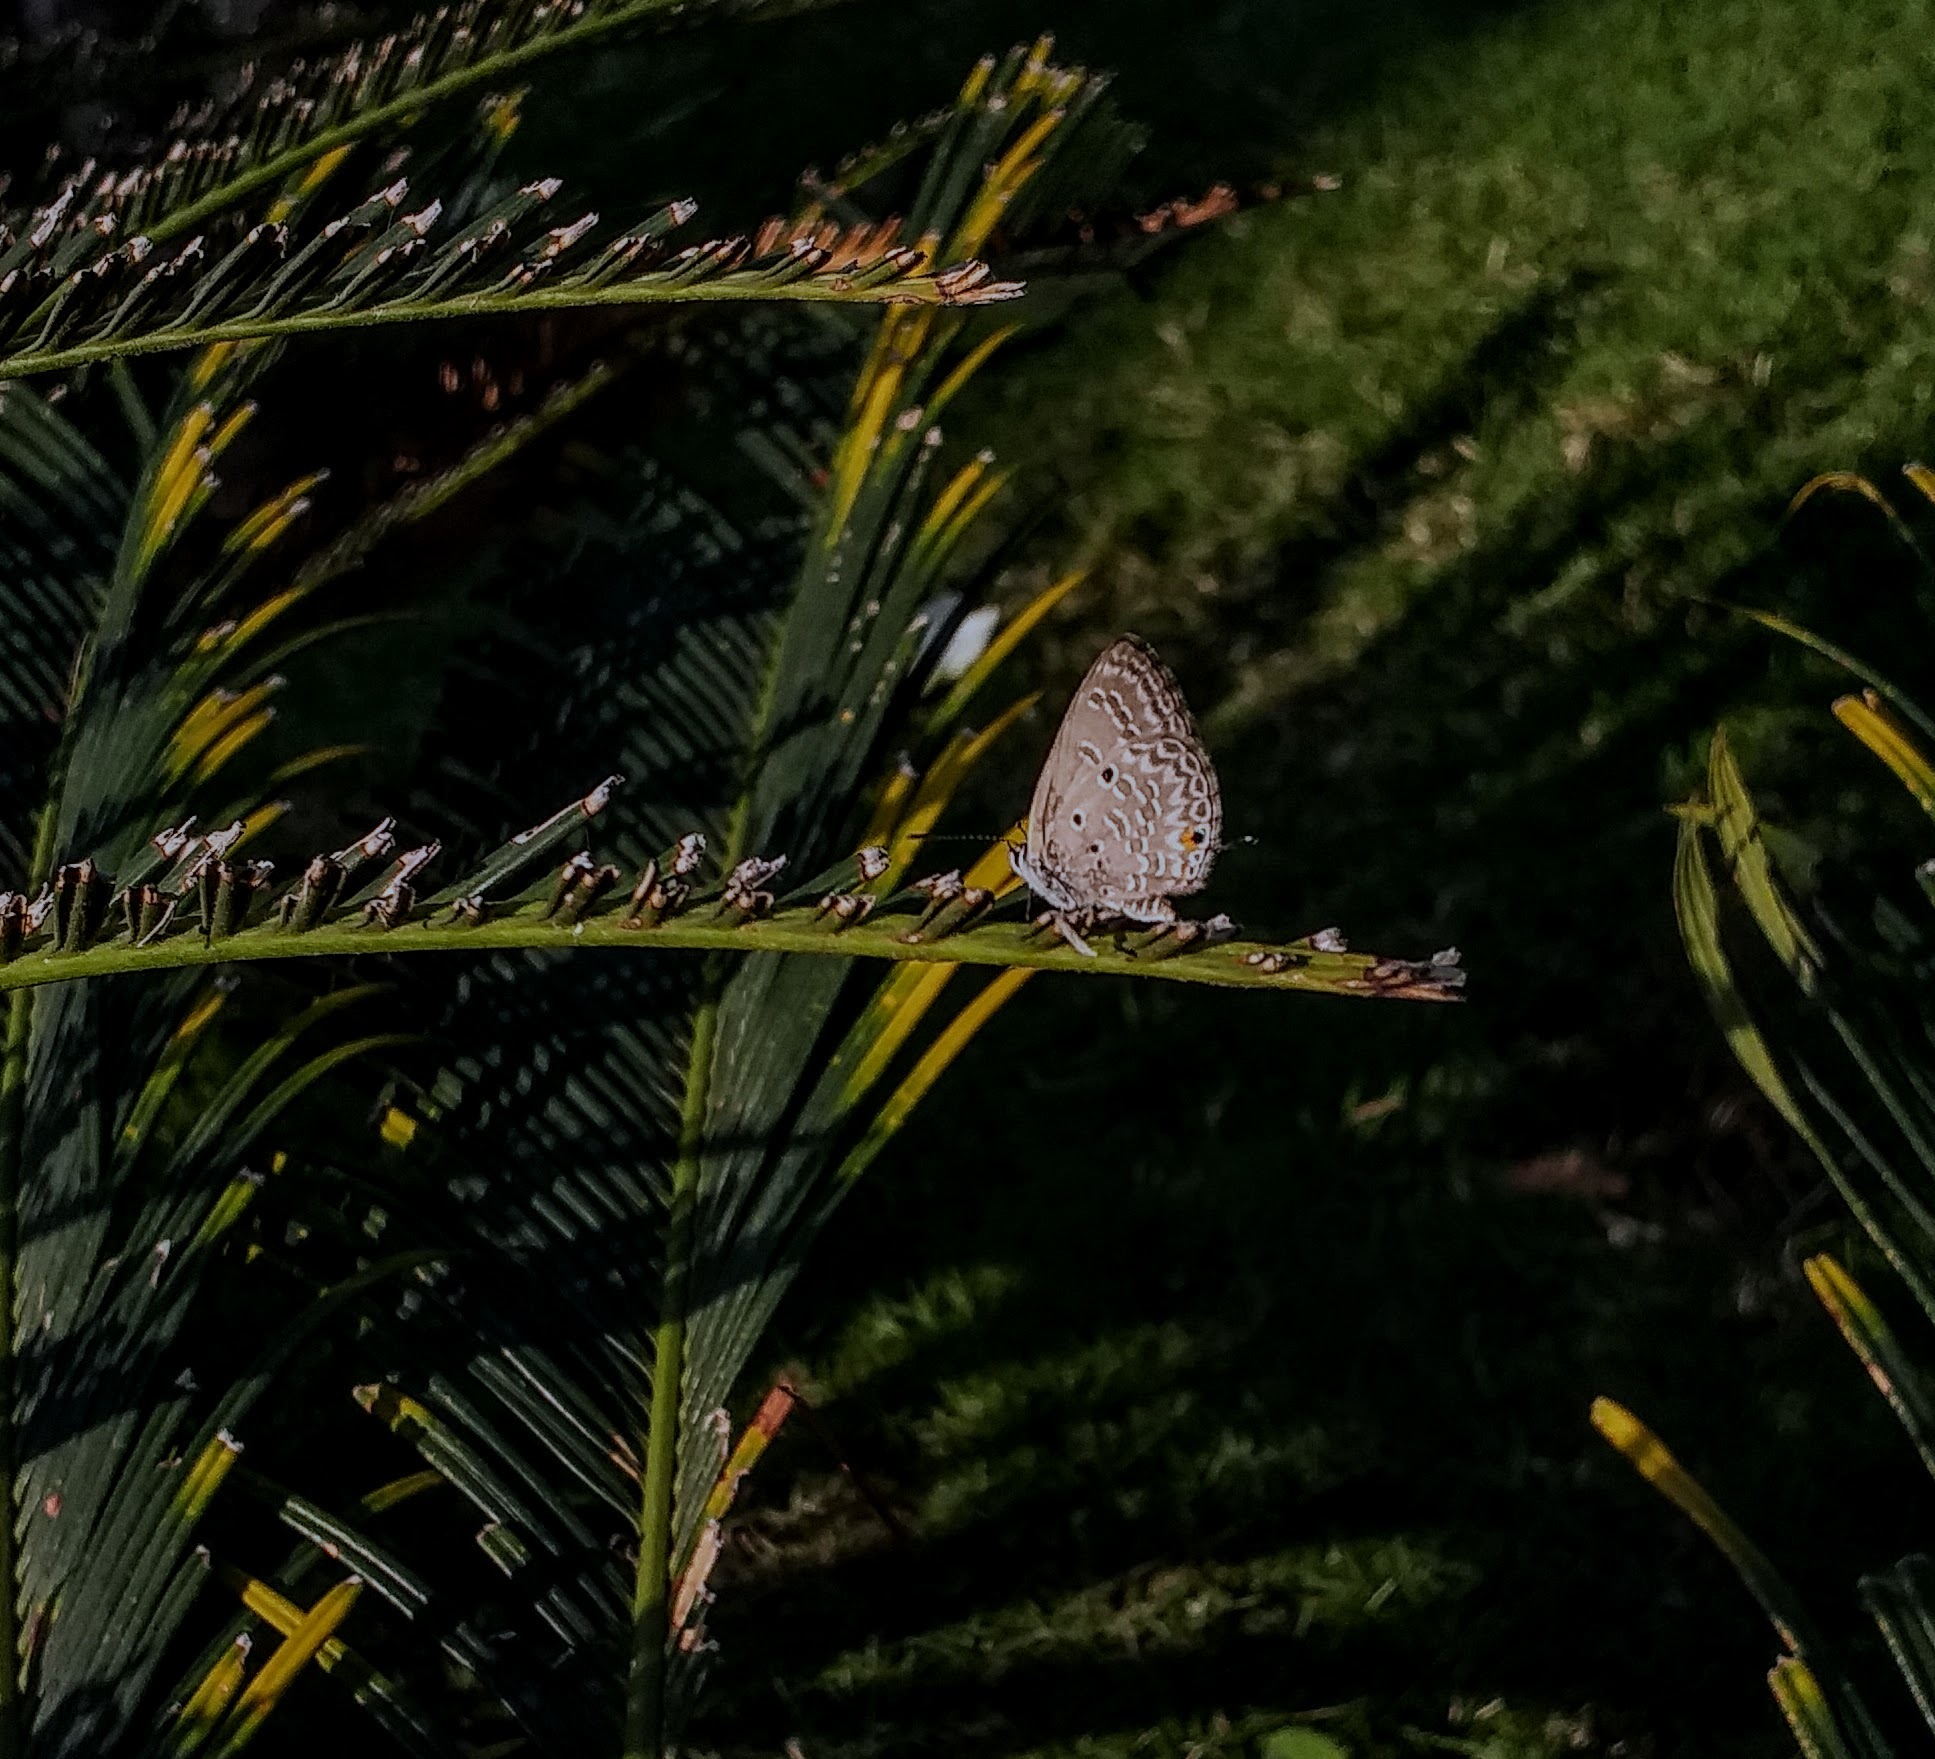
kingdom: Animalia
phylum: Arthropoda
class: Insecta
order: Lepidoptera
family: Lycaenidae
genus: Luthrodes
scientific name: Luthrodes pandava
